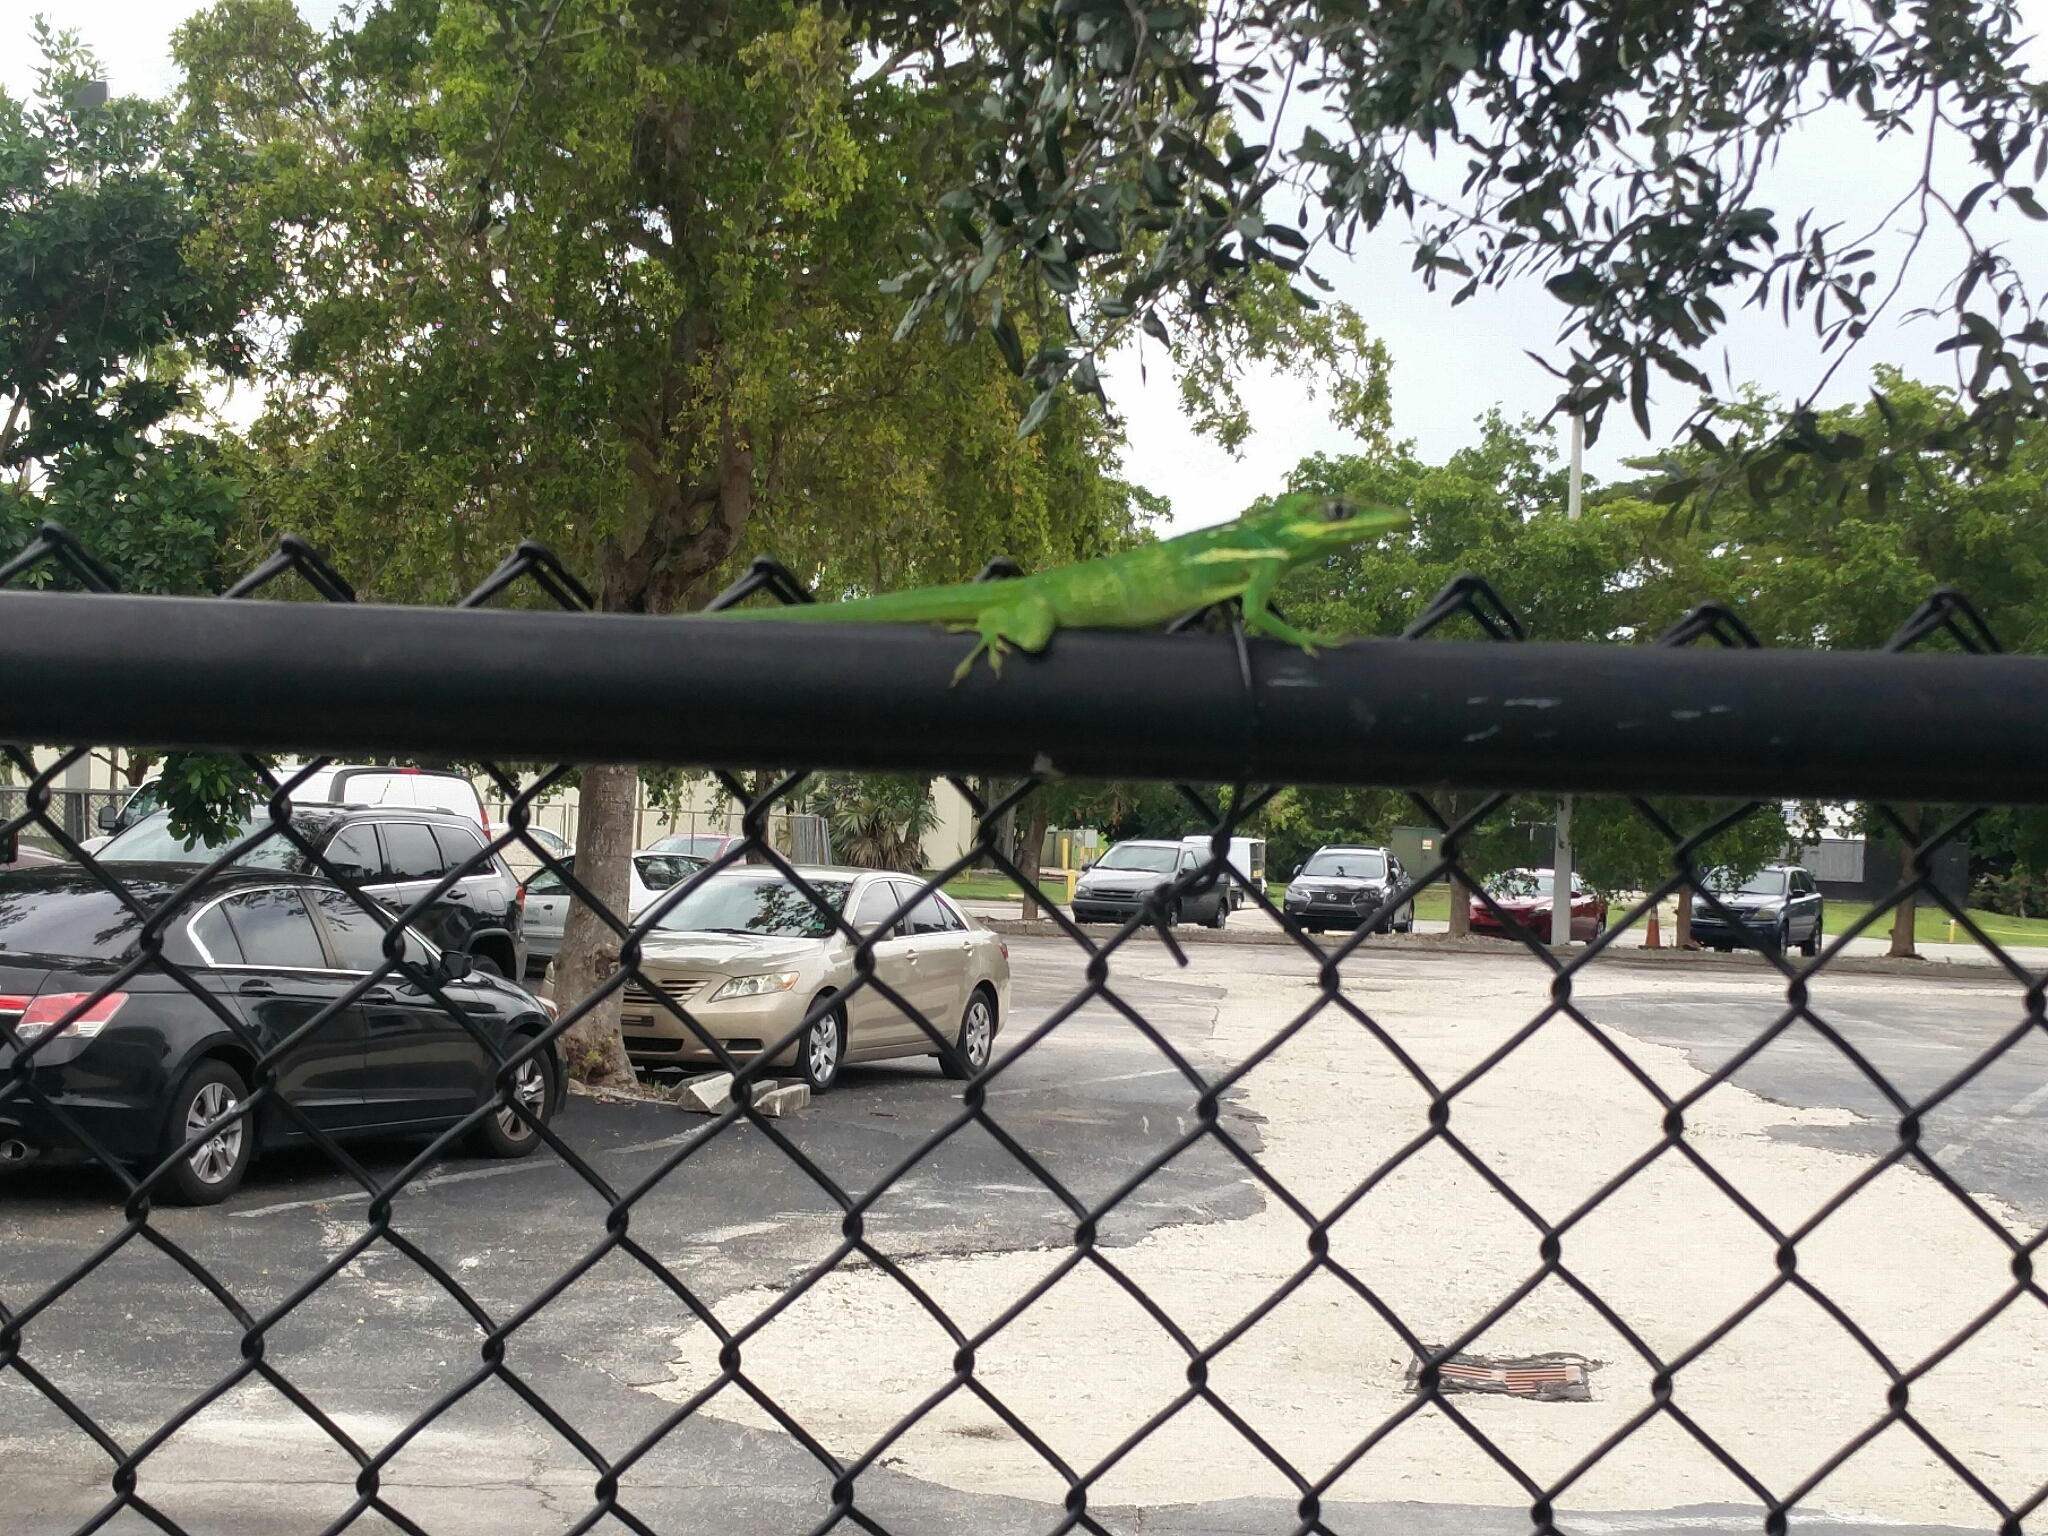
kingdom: Animalia
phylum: Chordata
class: Squamata
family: Dactyloidae
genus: Anolis
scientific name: Anolis equestris
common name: Knight anole
